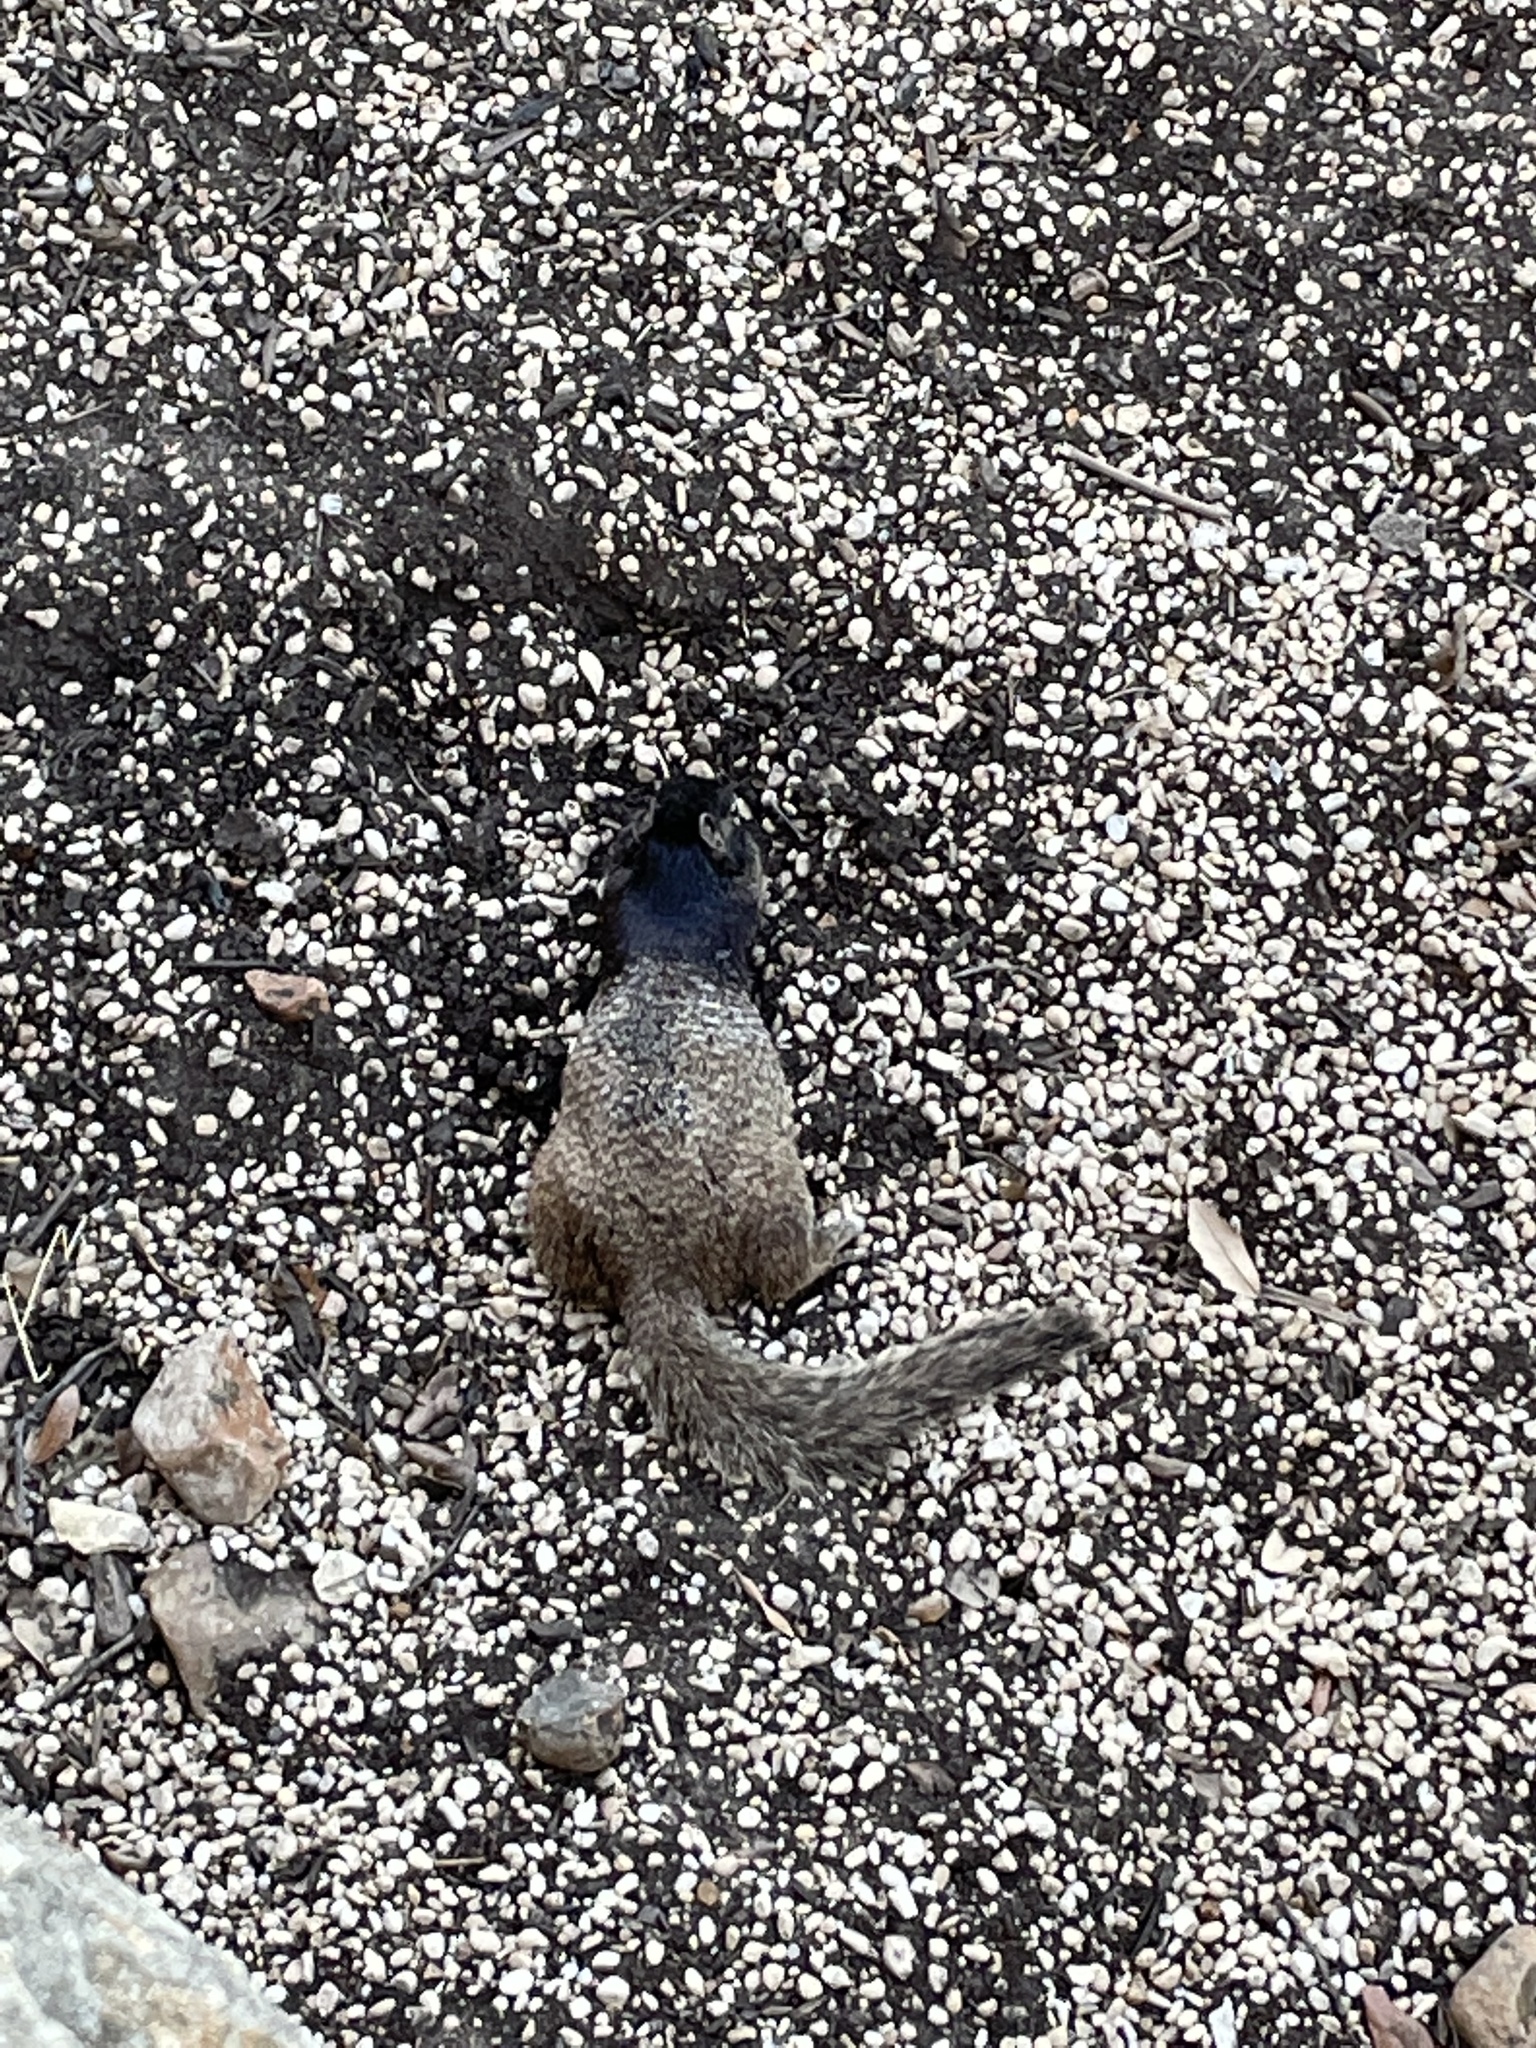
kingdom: Animalia
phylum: Chordata
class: Mammalia
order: Rodentia
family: Sciuridae
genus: Otospermophilus
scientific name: Otospermophilus variegatus
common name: Rock squirrel
